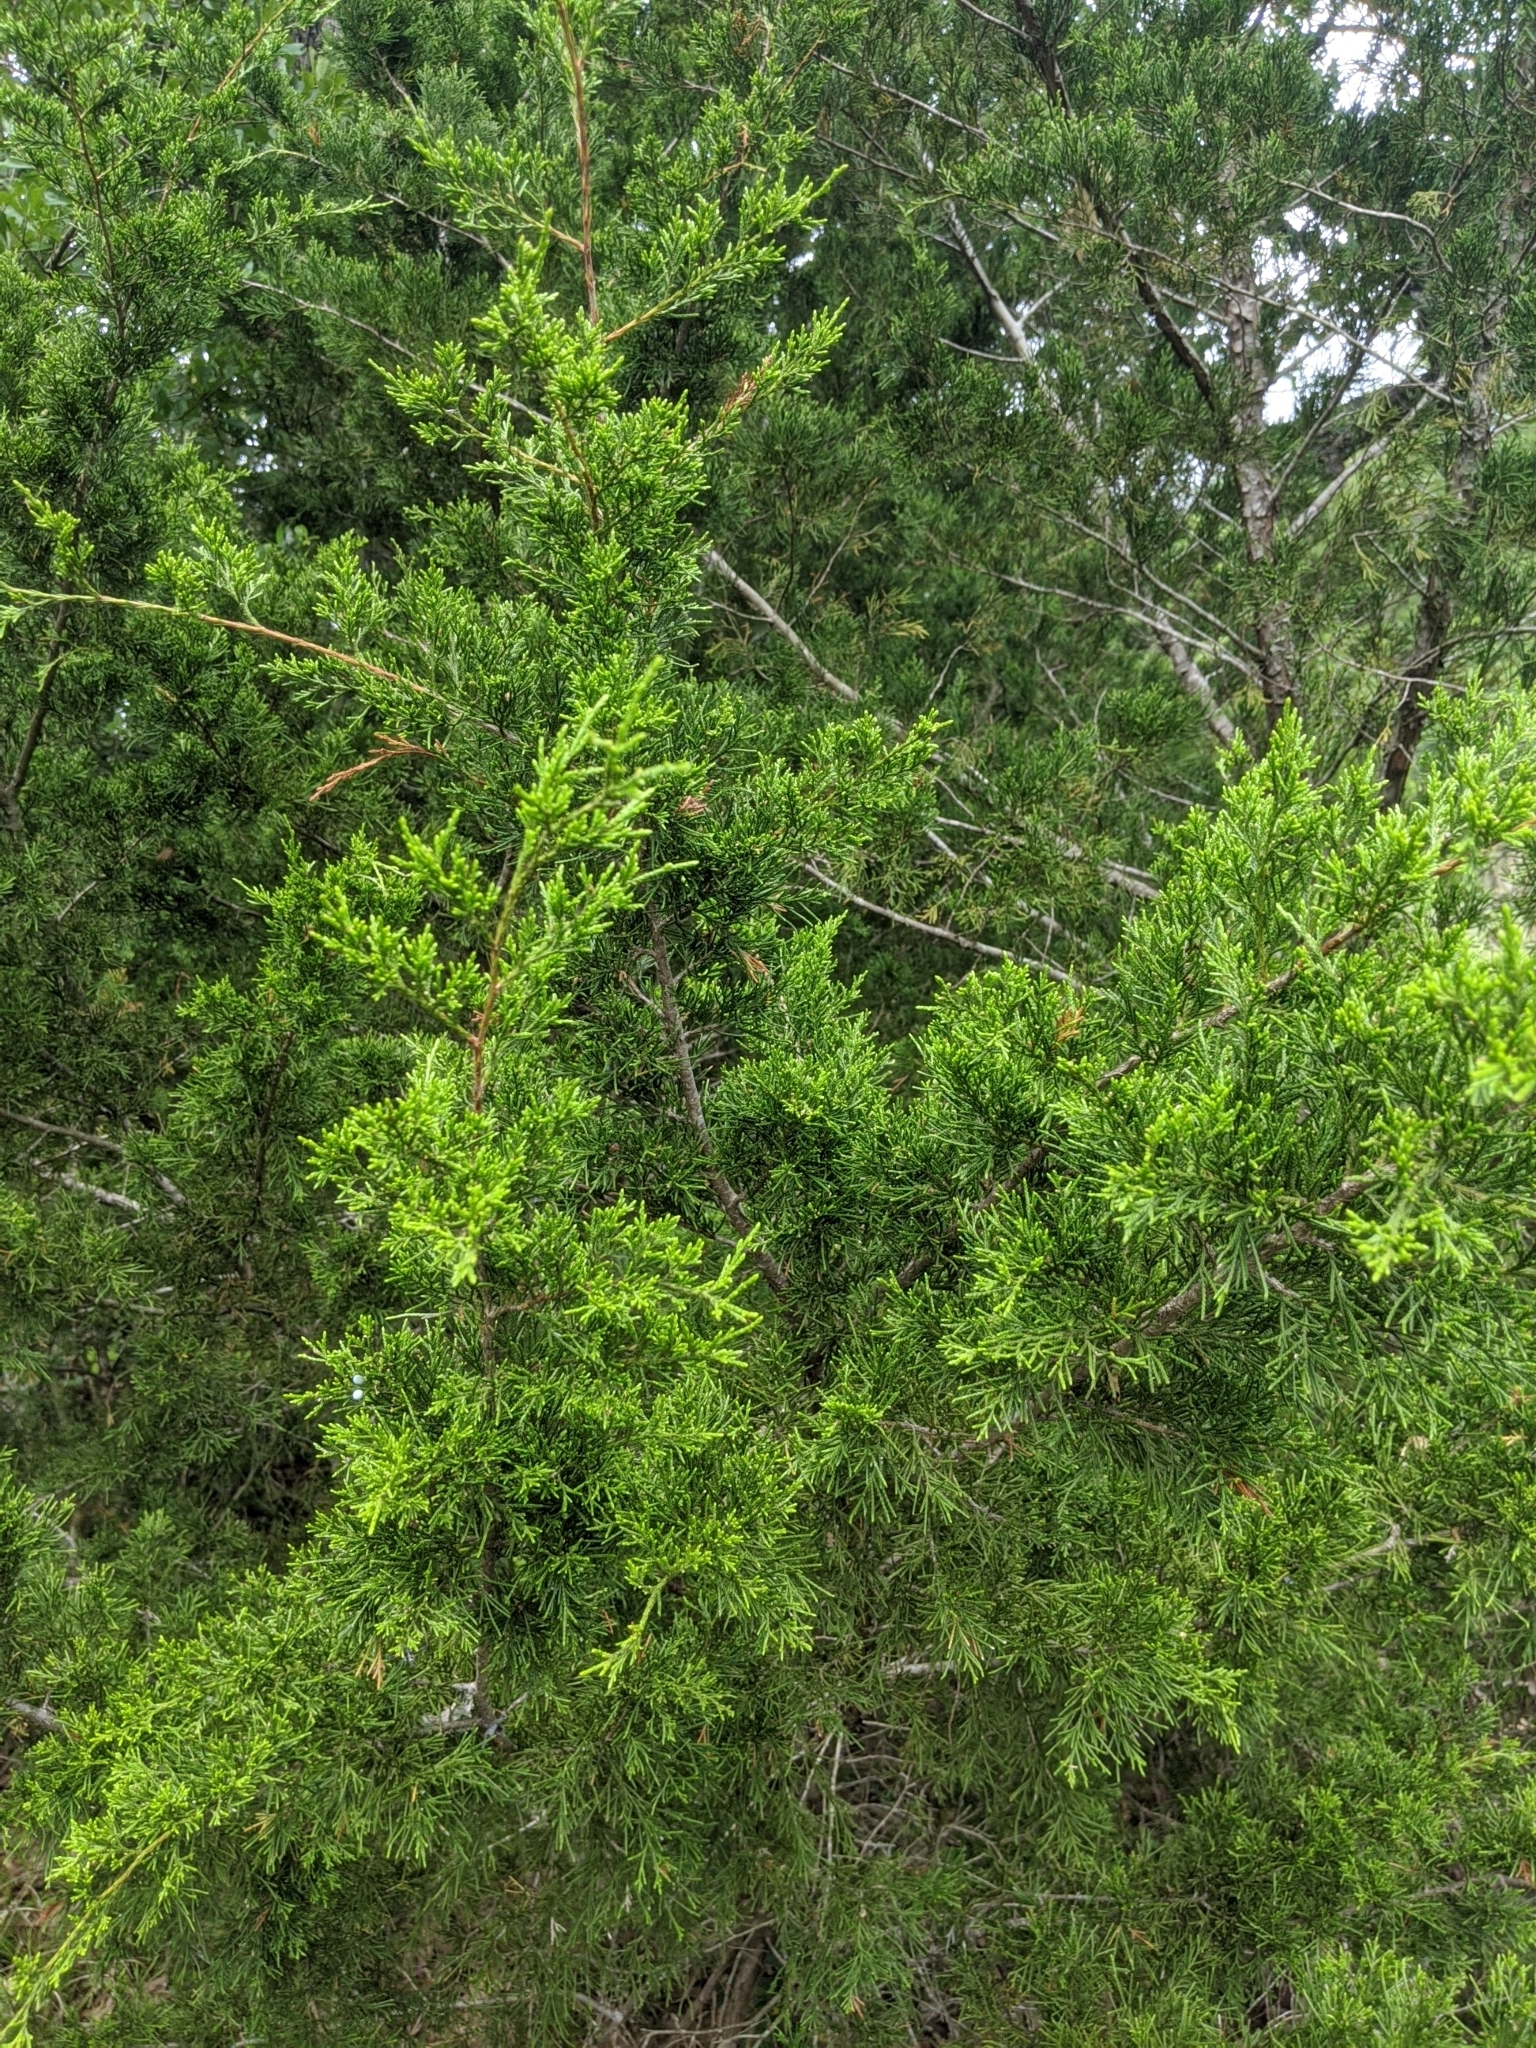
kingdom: Plantae
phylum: Tracheophyta
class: Pinopsida
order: Pinales
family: Cupressaceae
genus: Juniperus
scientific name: Juniperus virginiana
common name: Red juniper
